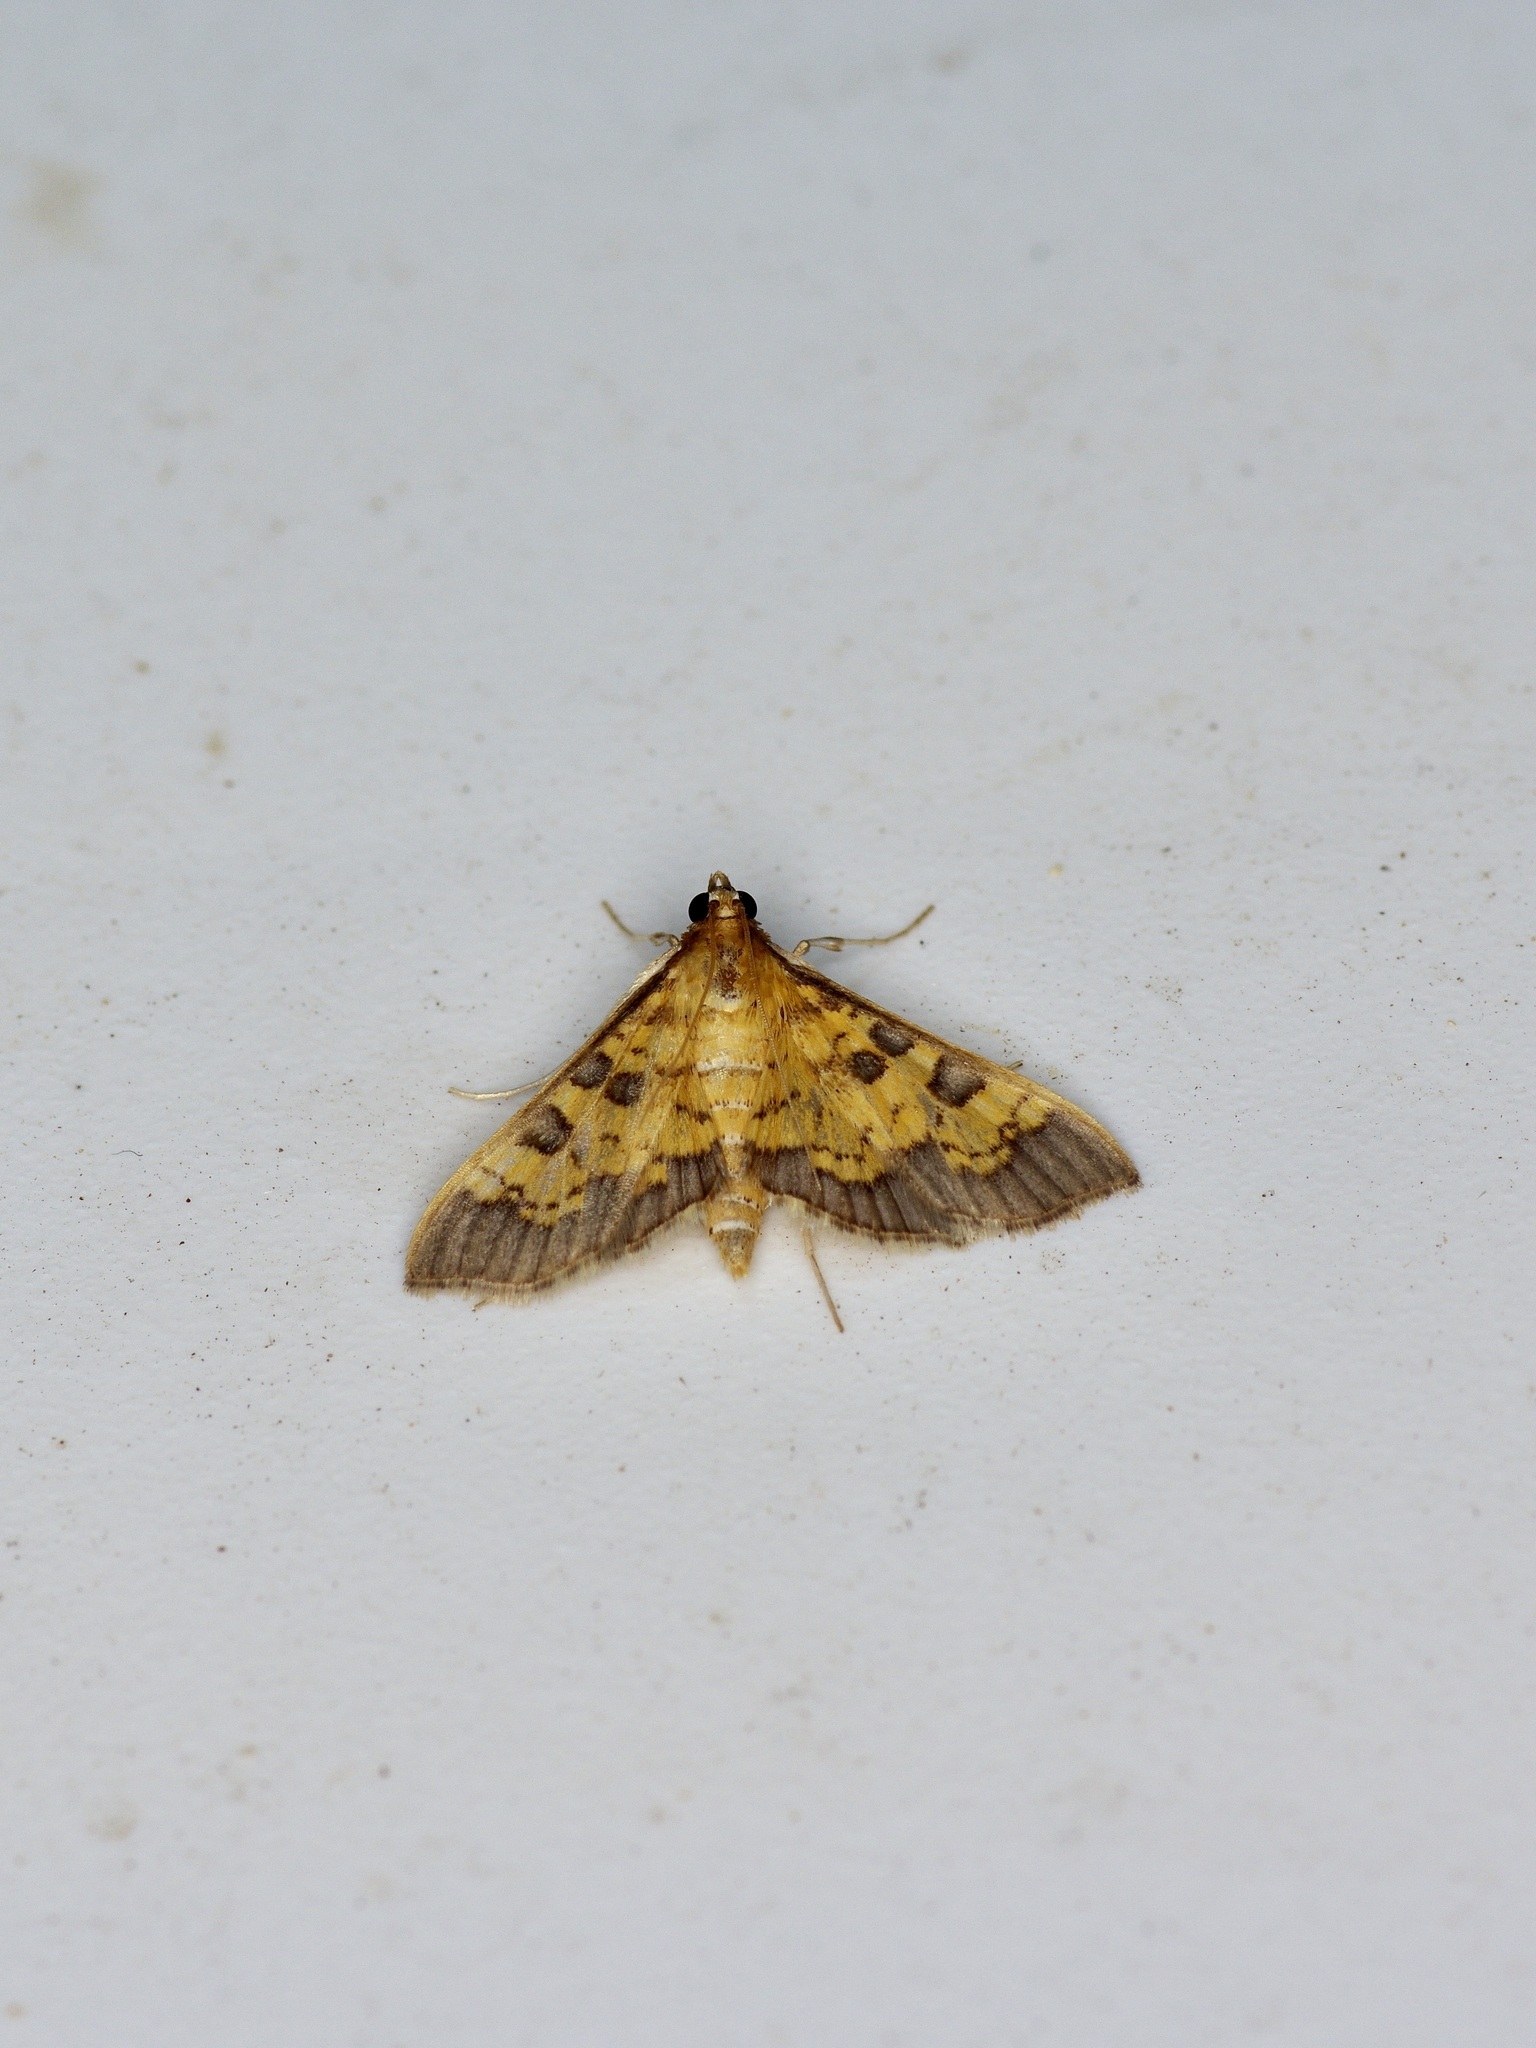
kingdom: Animalia
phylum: Arthropoda
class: Insecta
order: Lepidoptera
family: Crambidae
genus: Cryptographis
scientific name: Cryptographis elealis
